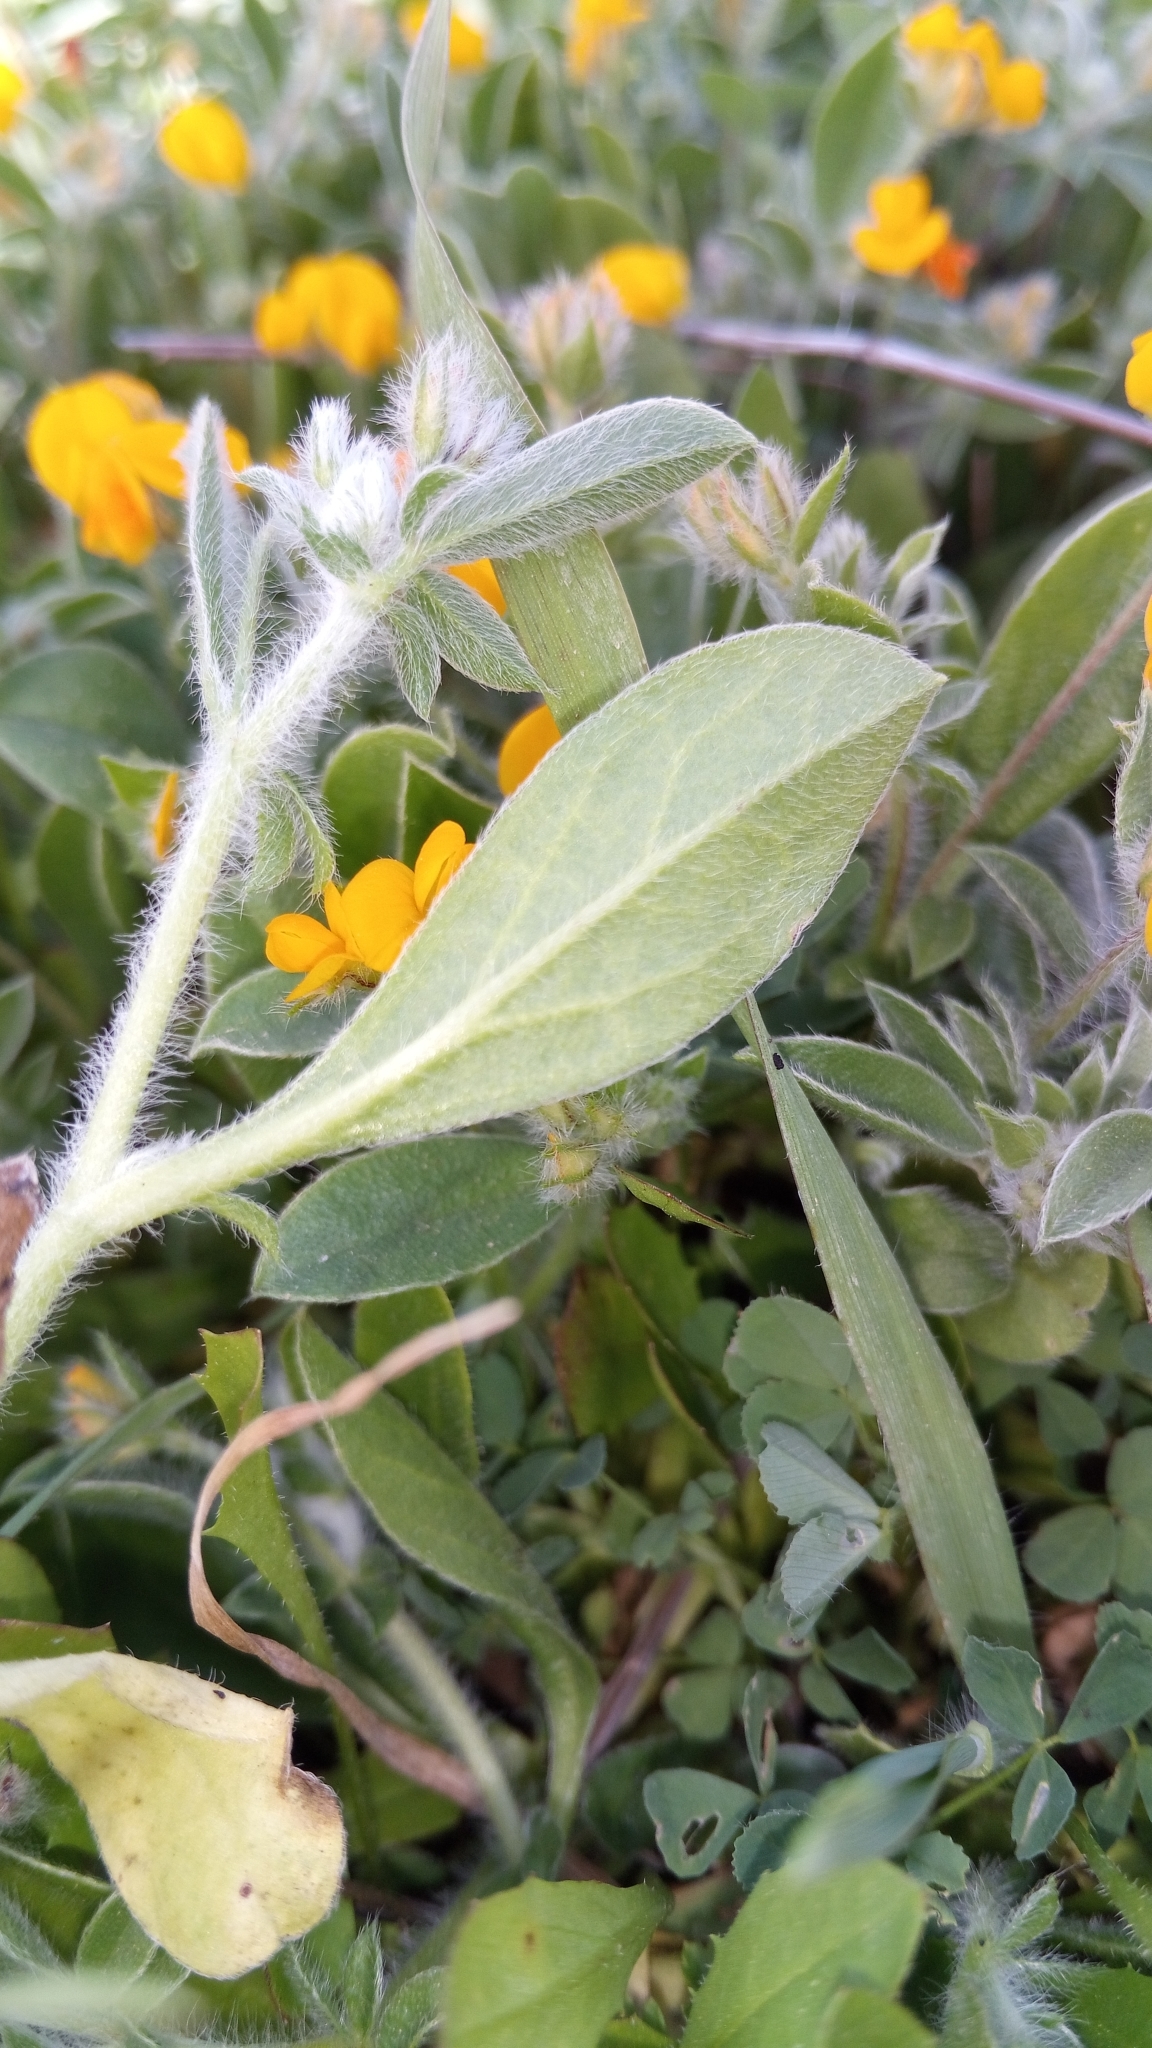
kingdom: Plantae
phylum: Tracheophyta
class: Magnoliopsida
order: Fabales
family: Fabaceae
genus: Anthyllis
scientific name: Anthyllis circinnata
